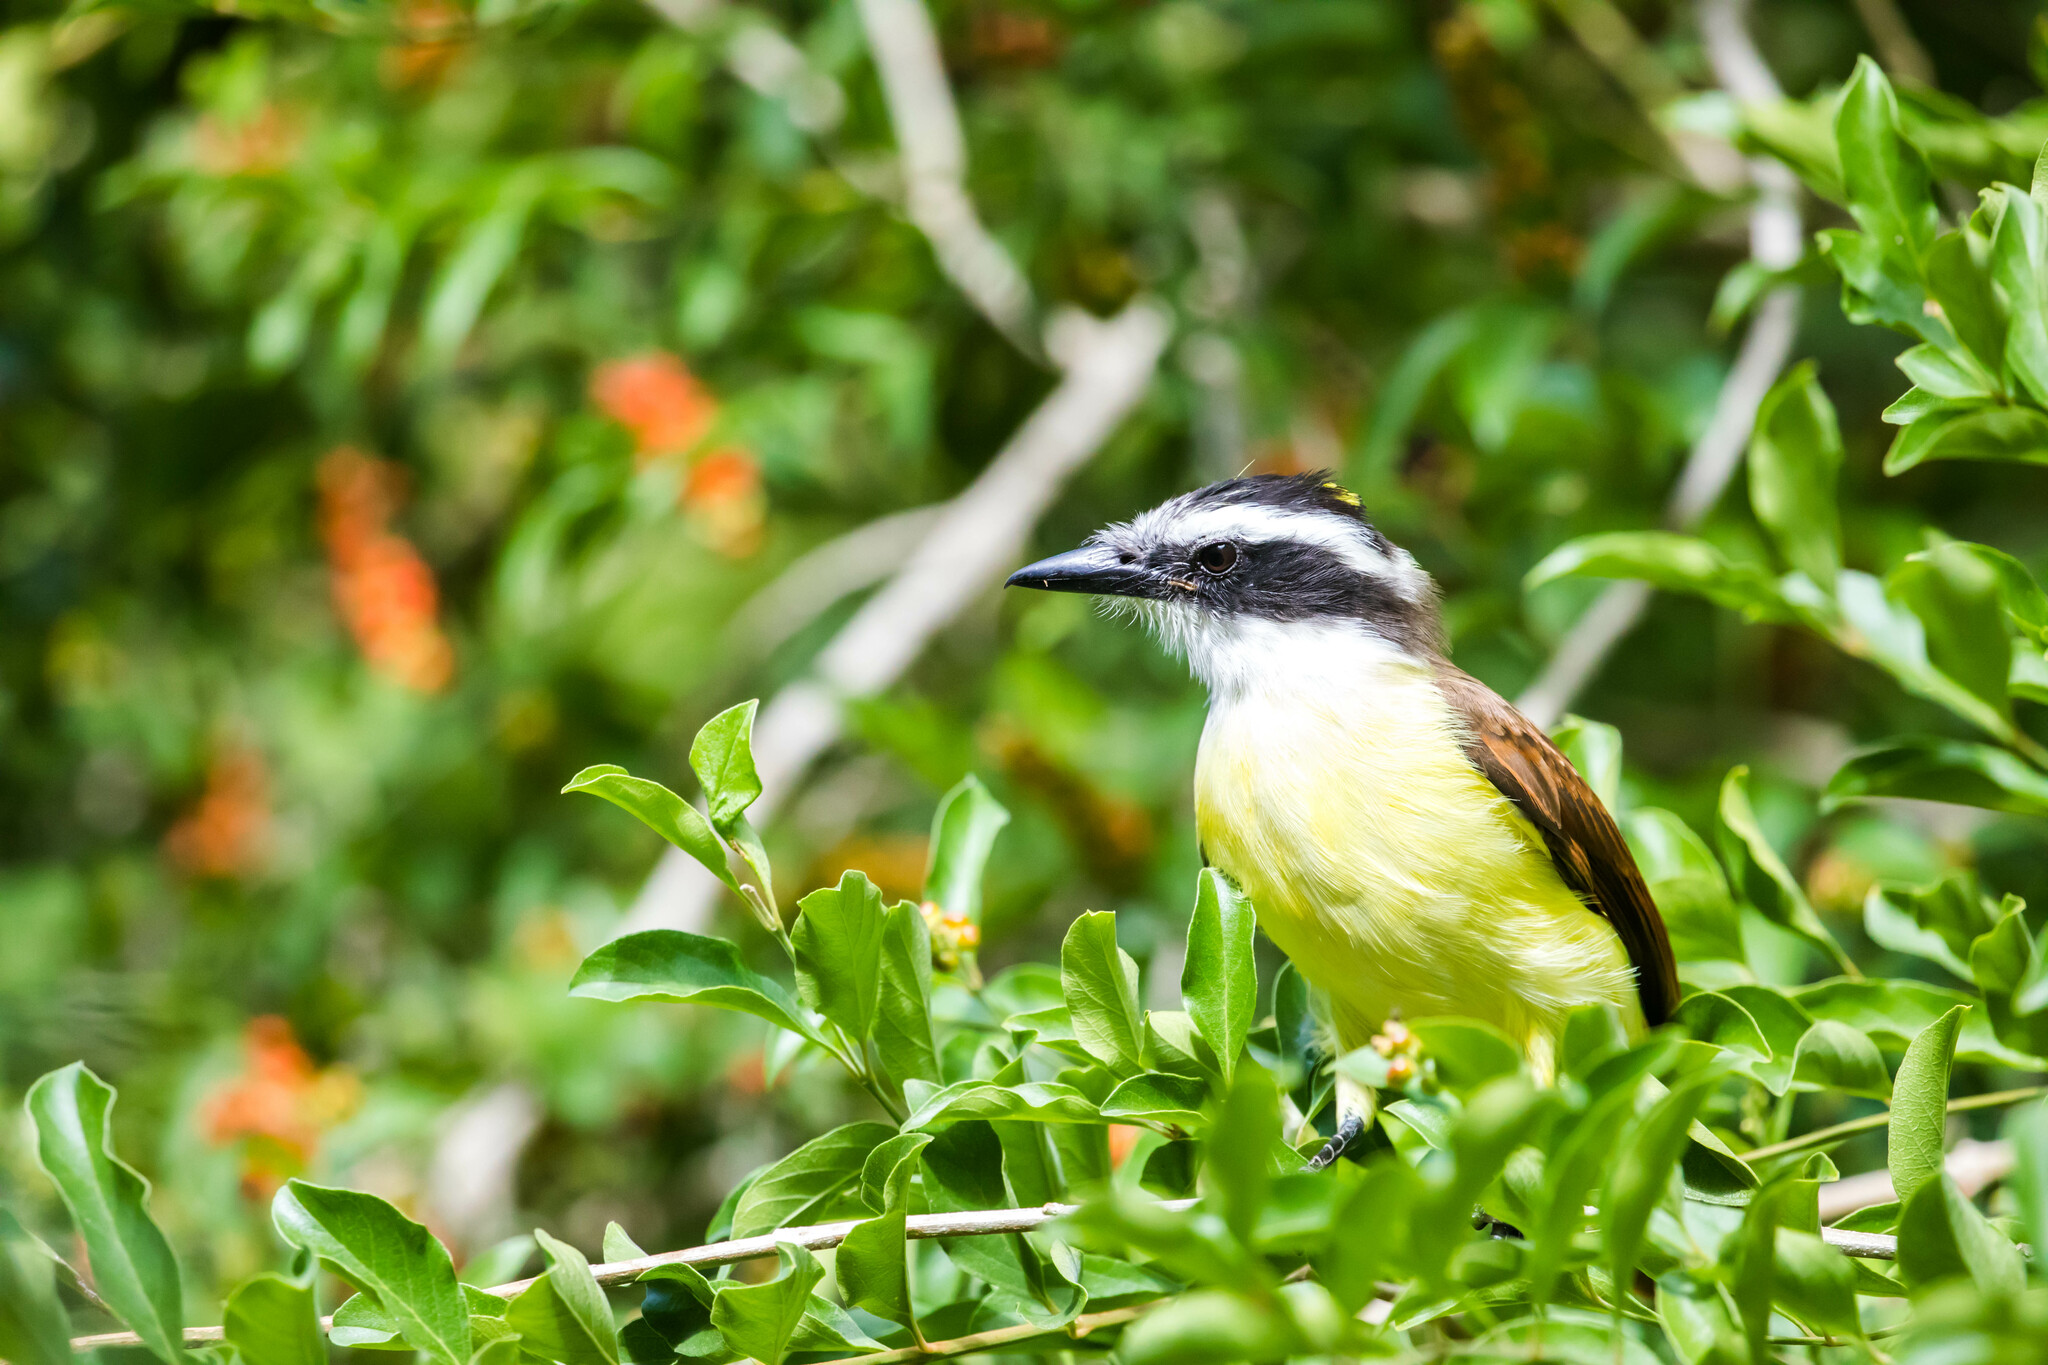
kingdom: Animalia
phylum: Chordata
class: Aves
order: Passeriformes
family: Tyrannidae
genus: Pitangus
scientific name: Pitangus sulphuratus
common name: Great kiskadee
